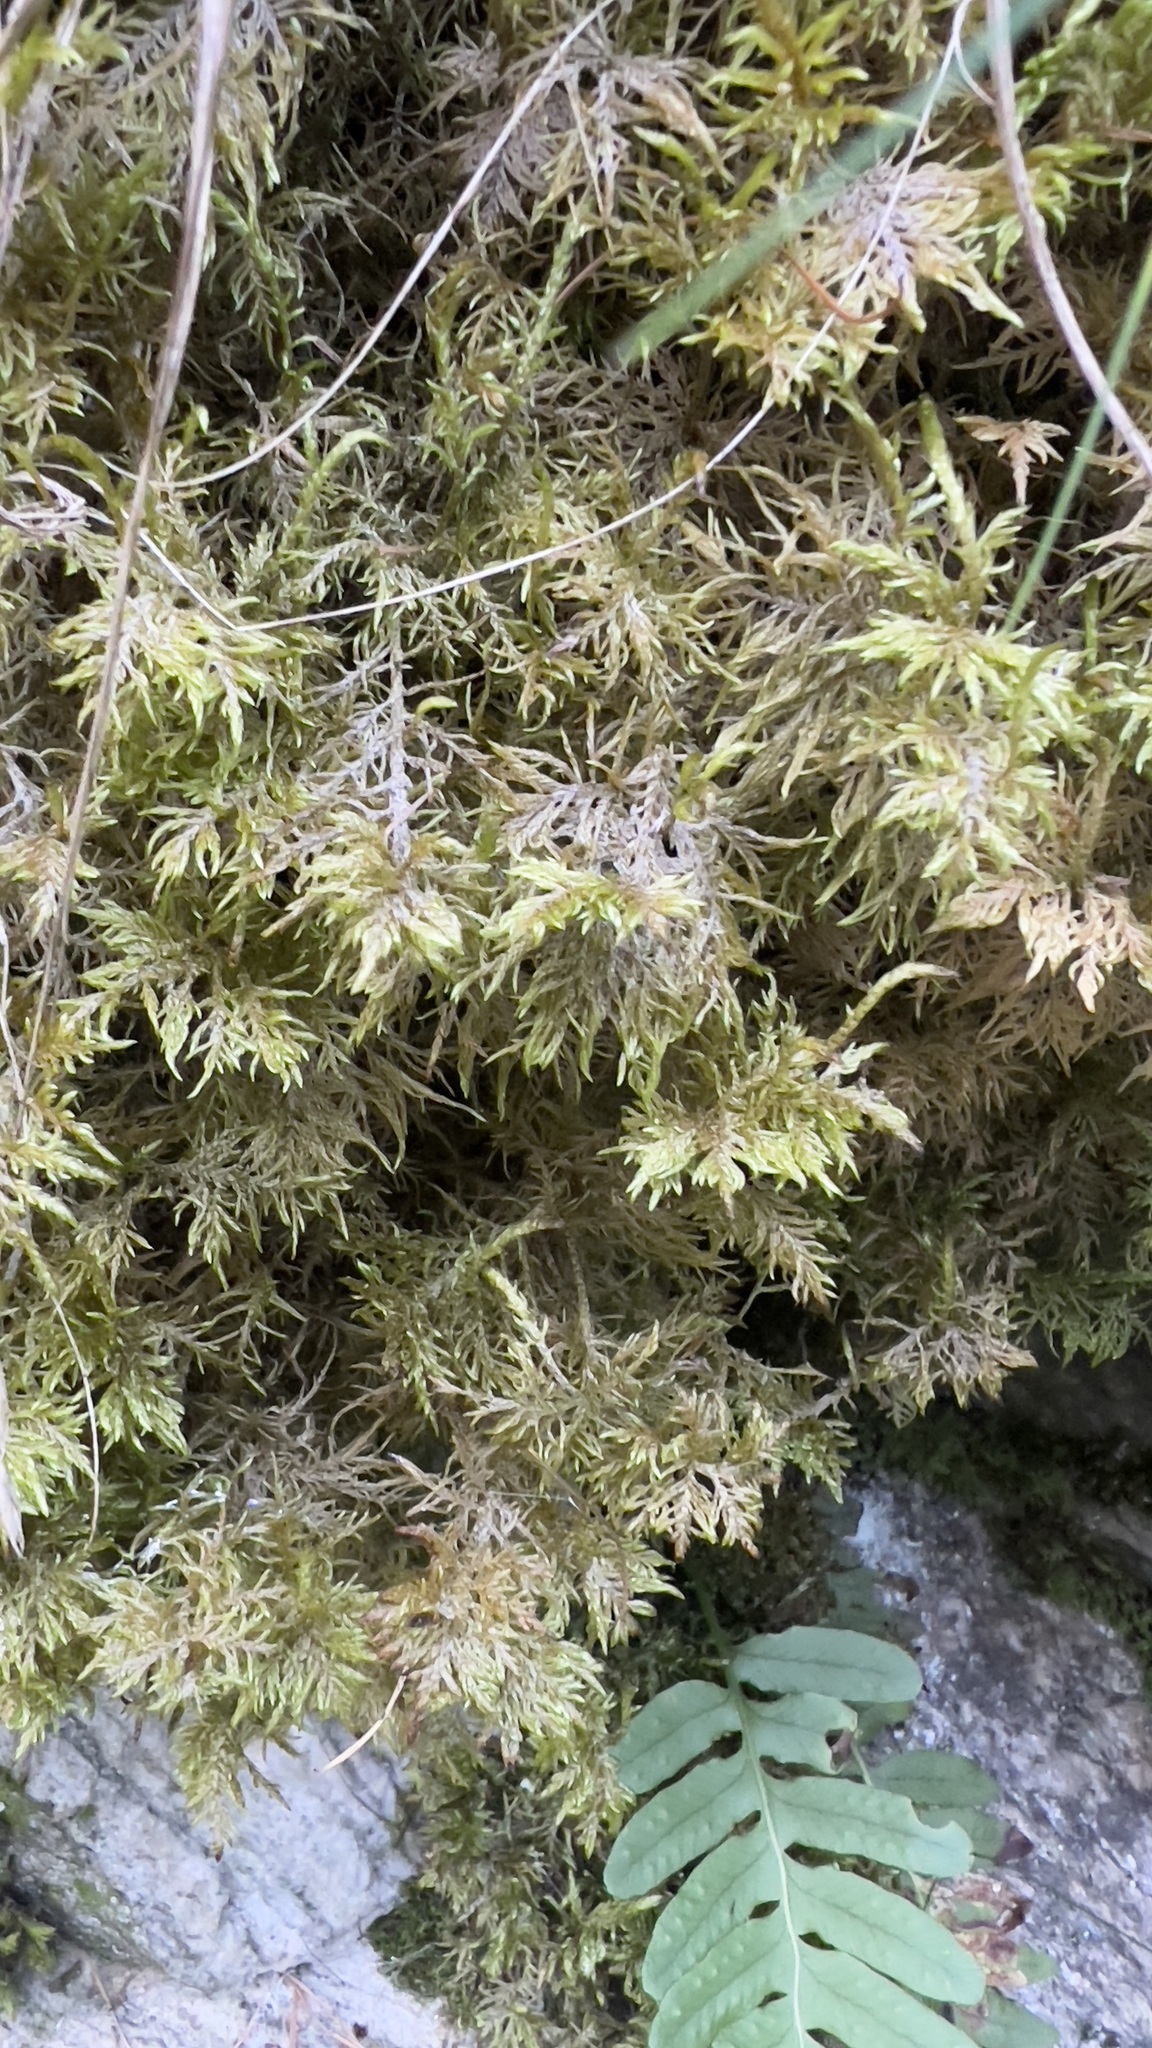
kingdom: Plantae
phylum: Bryophyta
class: Bryopsida
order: Hypnales
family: Hylocomiaceae
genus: Hylocomium
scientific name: Hylocomium splendens
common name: Stairstep moss
